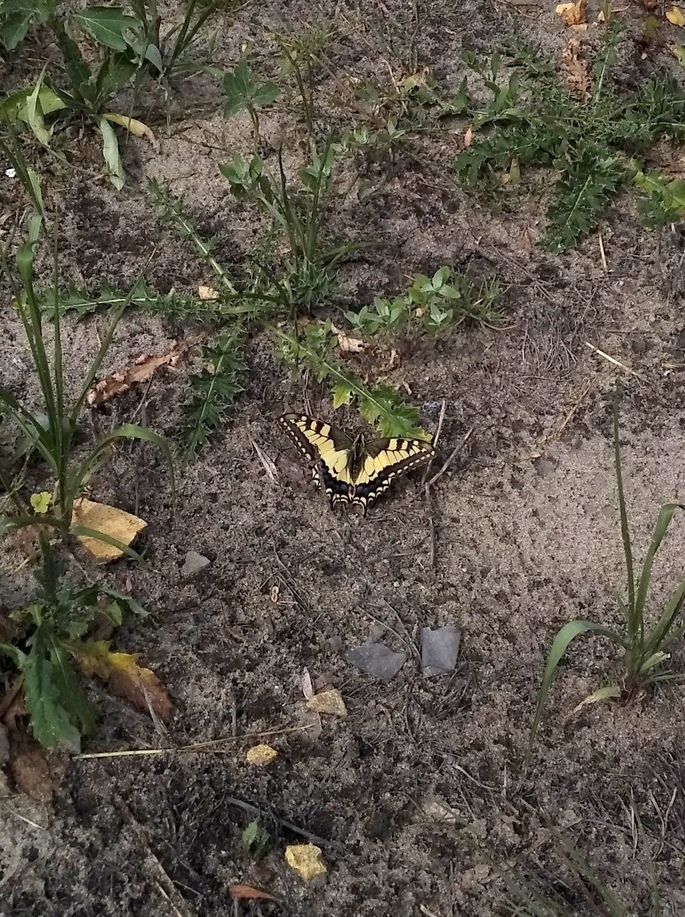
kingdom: Animalia
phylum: Arthropoda
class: Insecta
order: Lepidoptera
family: Papilionidae
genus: Papilio
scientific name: Papilio machaon
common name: Swallowtail
